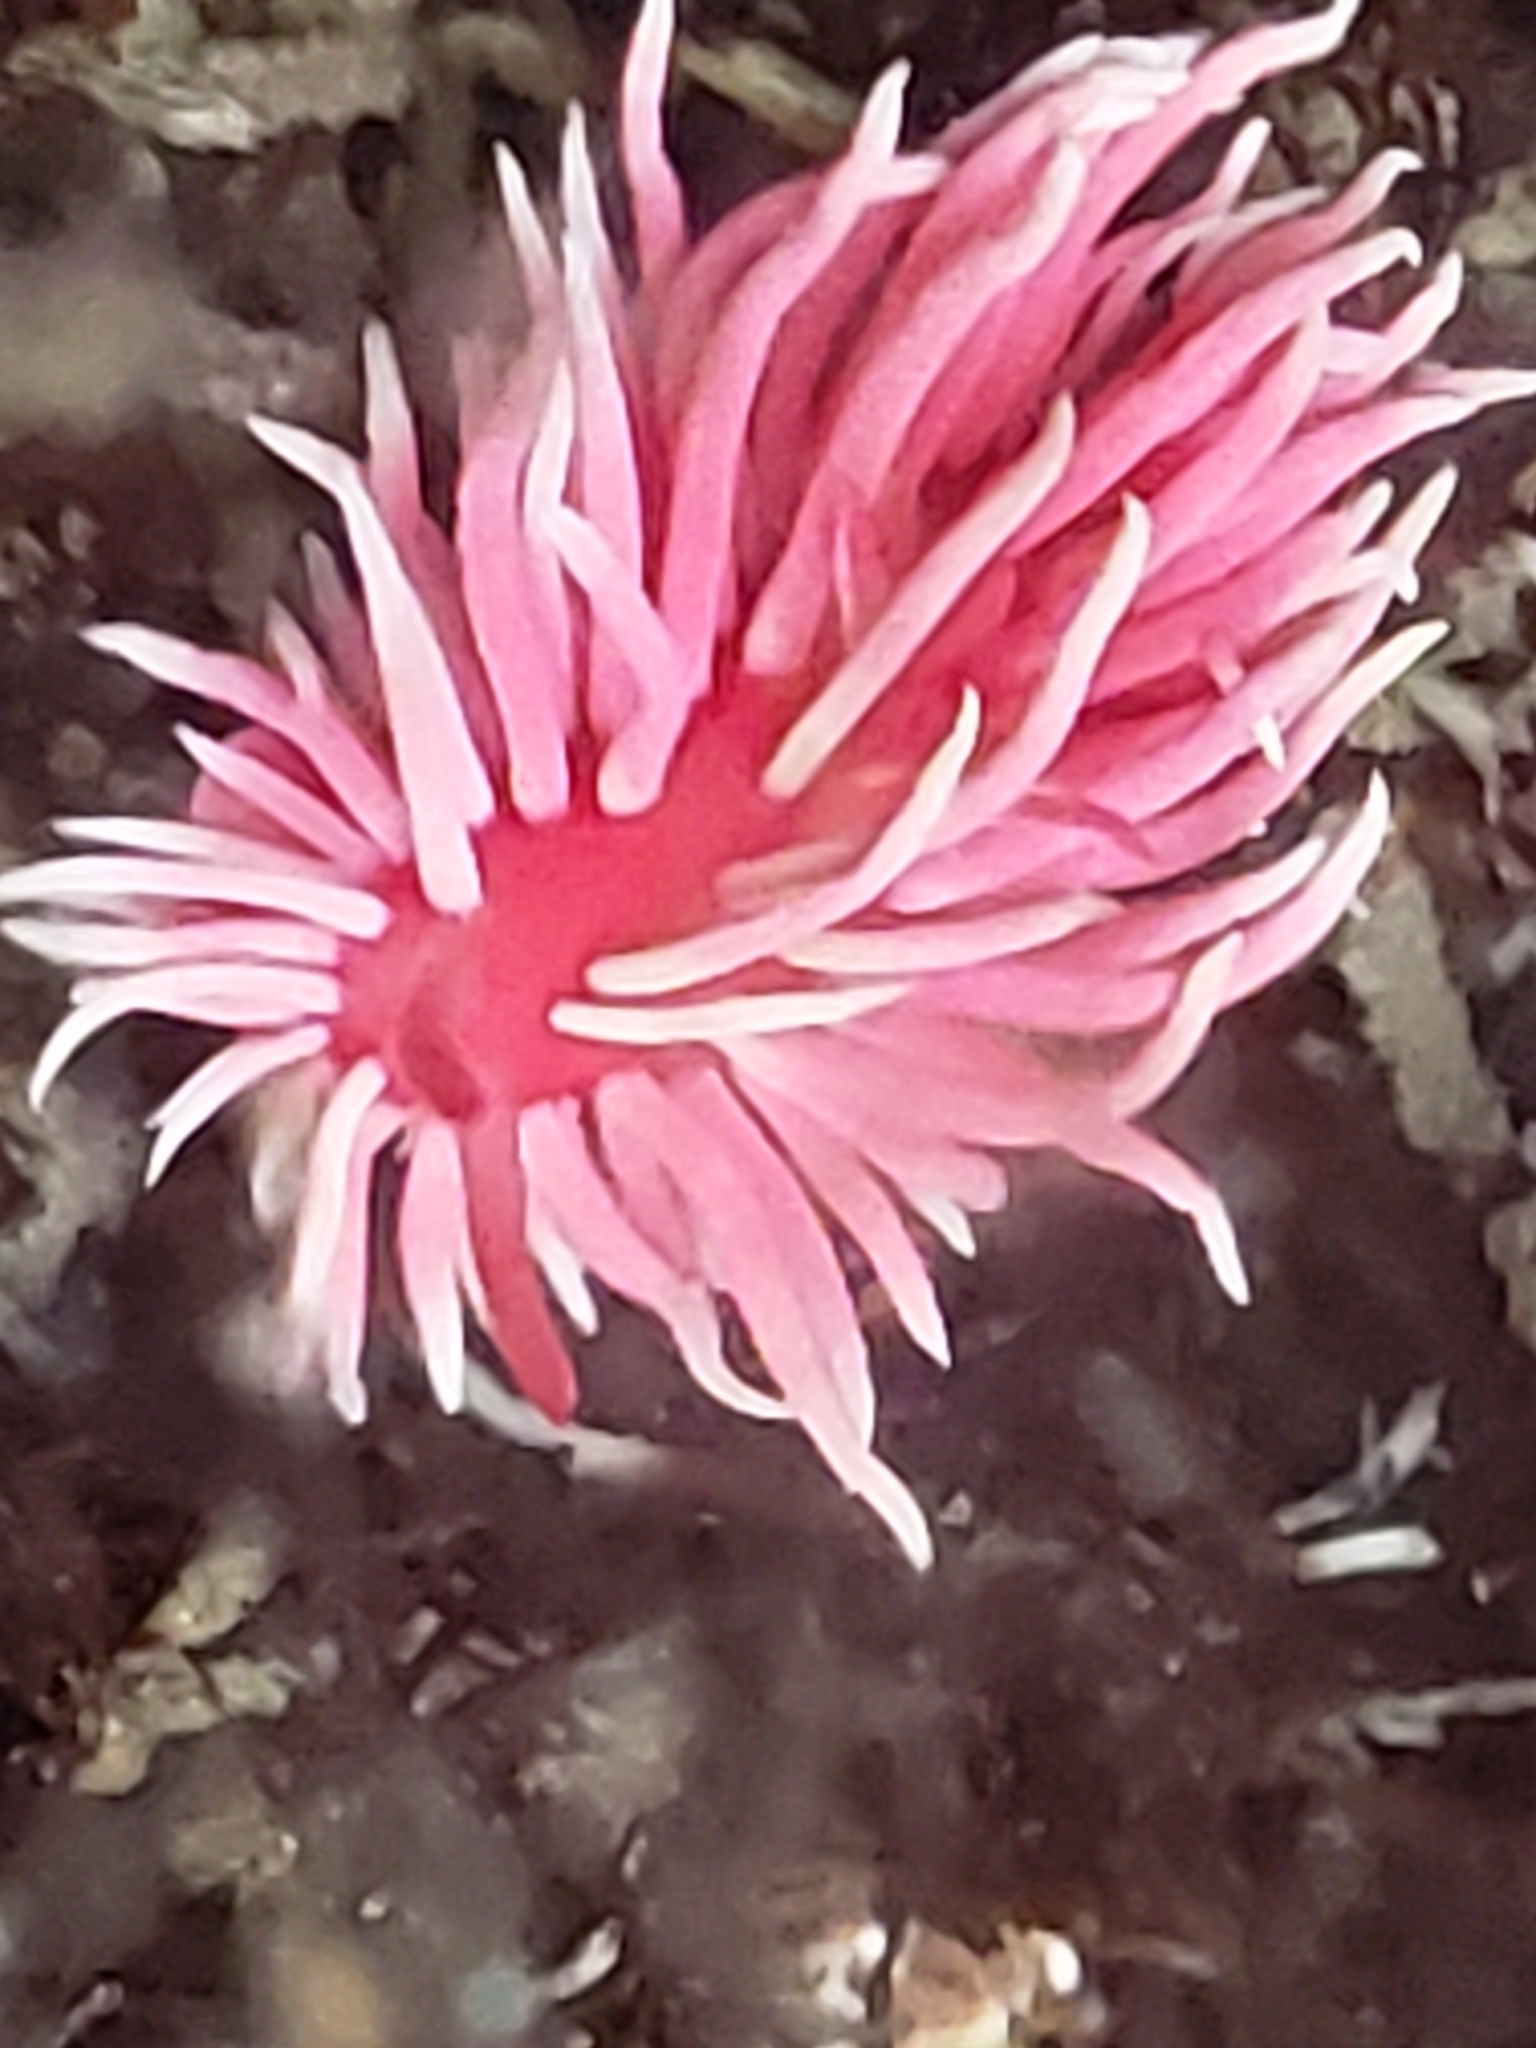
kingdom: Animalia
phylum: Mollusca
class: Gastropoda
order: Nudibranchia
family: Goniodorididae
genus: Okenia
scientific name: Okenia
